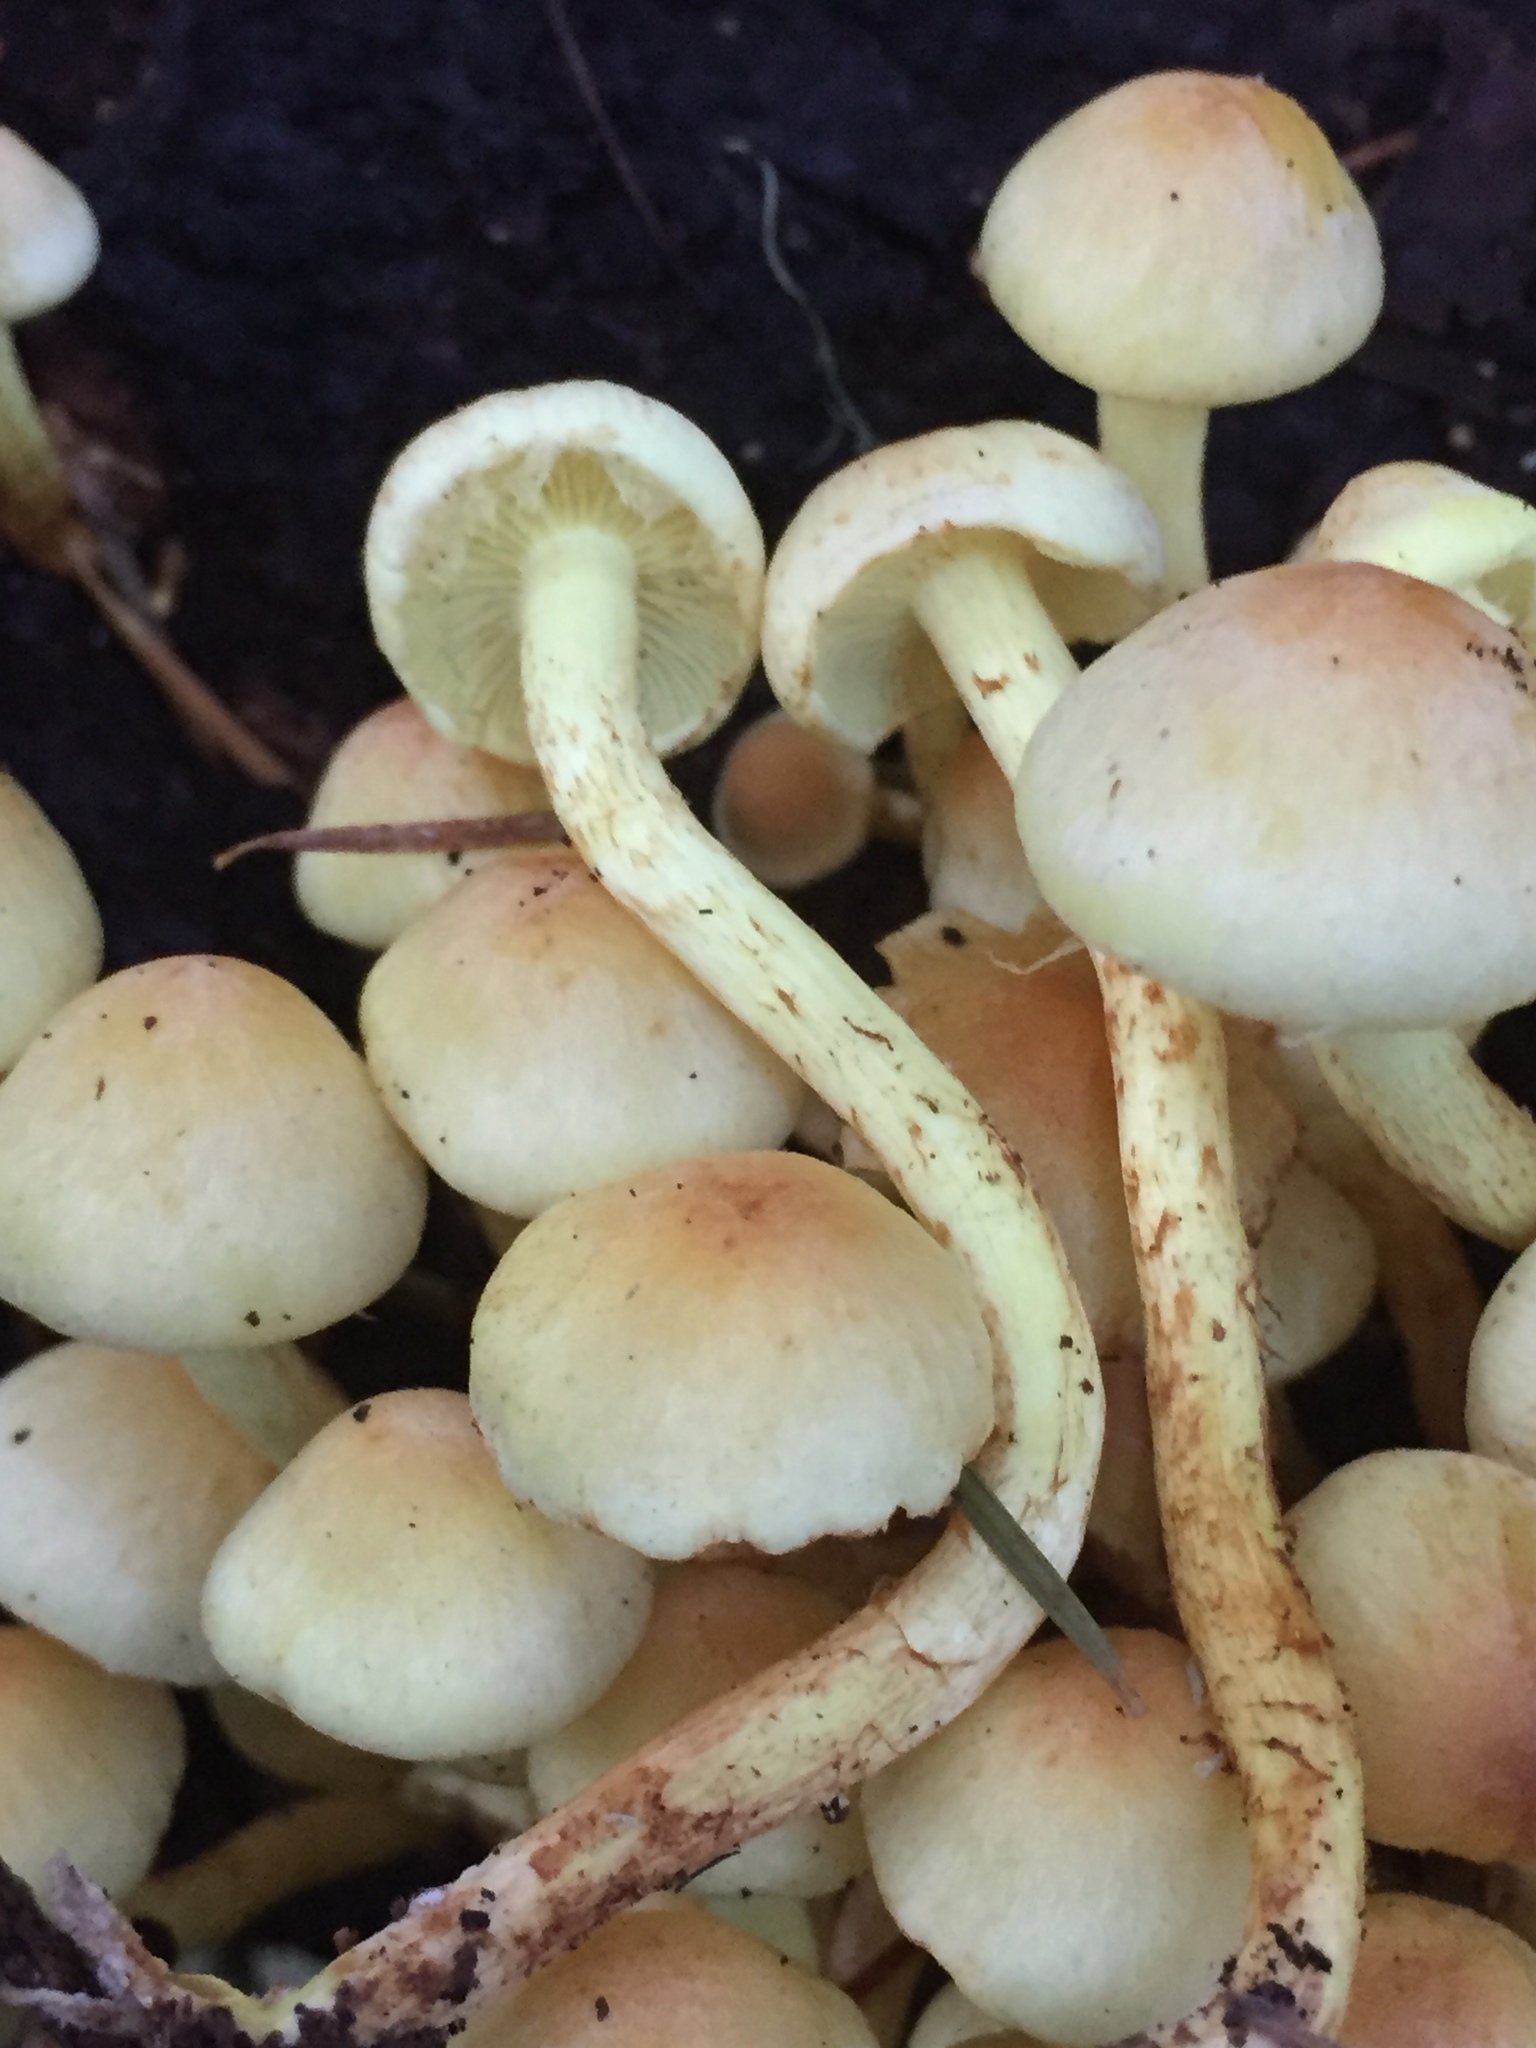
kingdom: Fungi
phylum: Basidiomycota
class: Agaricomycetes
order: Agaricales
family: Strophariaceae
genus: Hypholoma
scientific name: Hypholoma fasciculare
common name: Sulphur tuft
